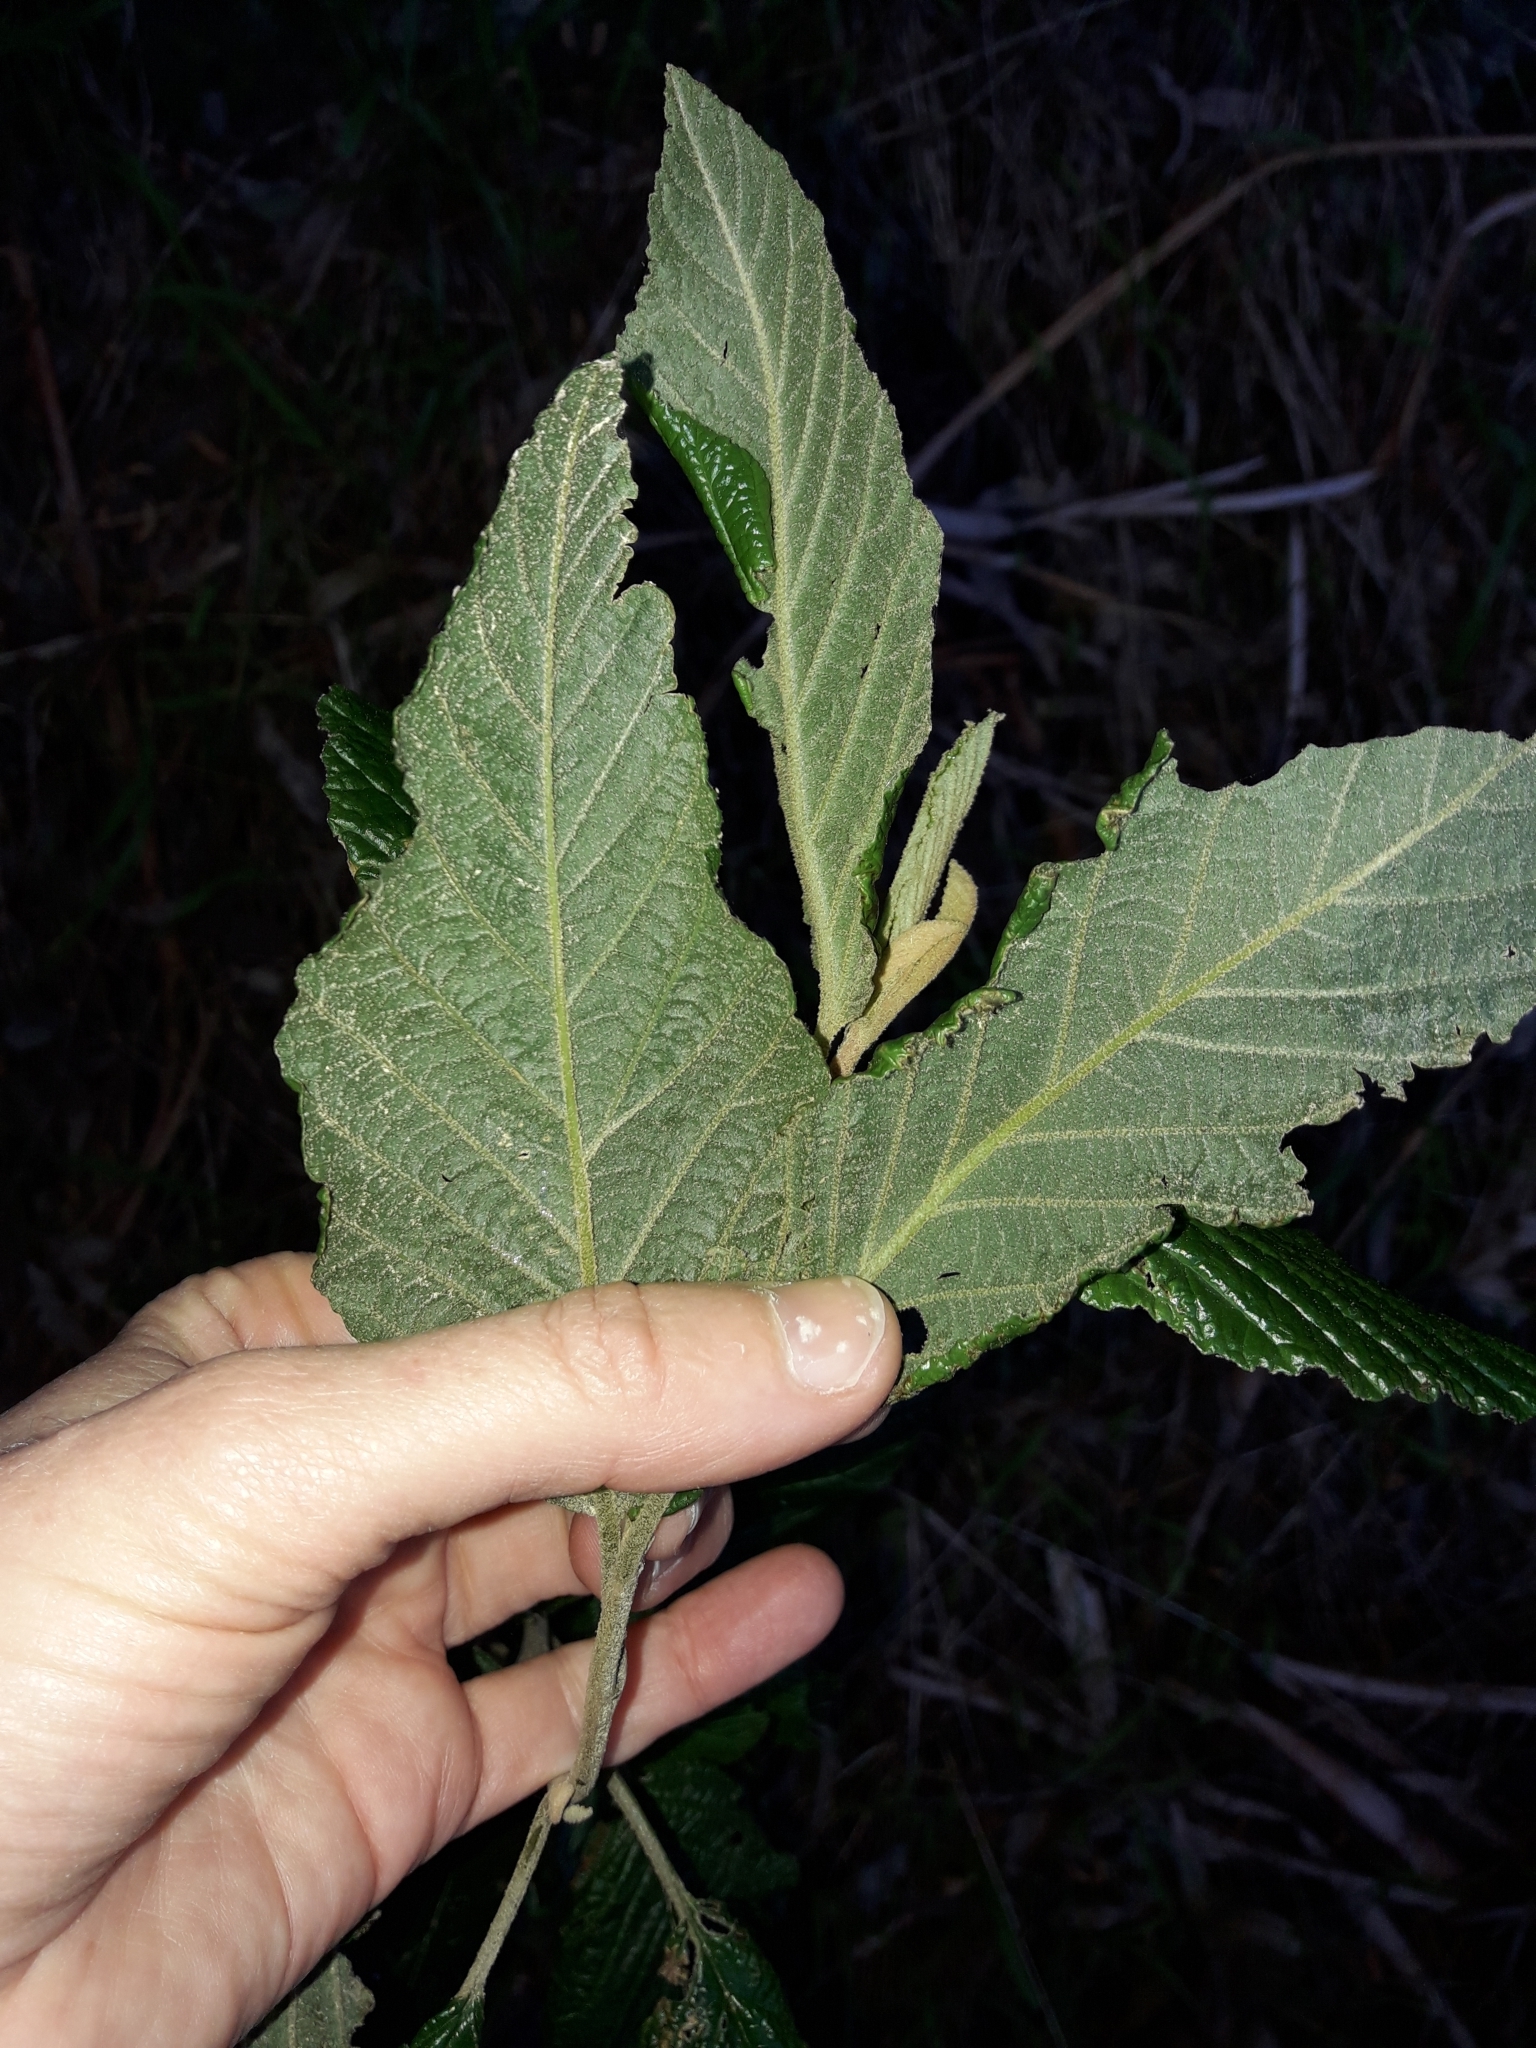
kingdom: Plantae
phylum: Tracheophyta
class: Magnoliopsida
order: Rosales
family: Rhamnaceae
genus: Pomaderris
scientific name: Pomaderris aspera
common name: Hazel pomaderris
